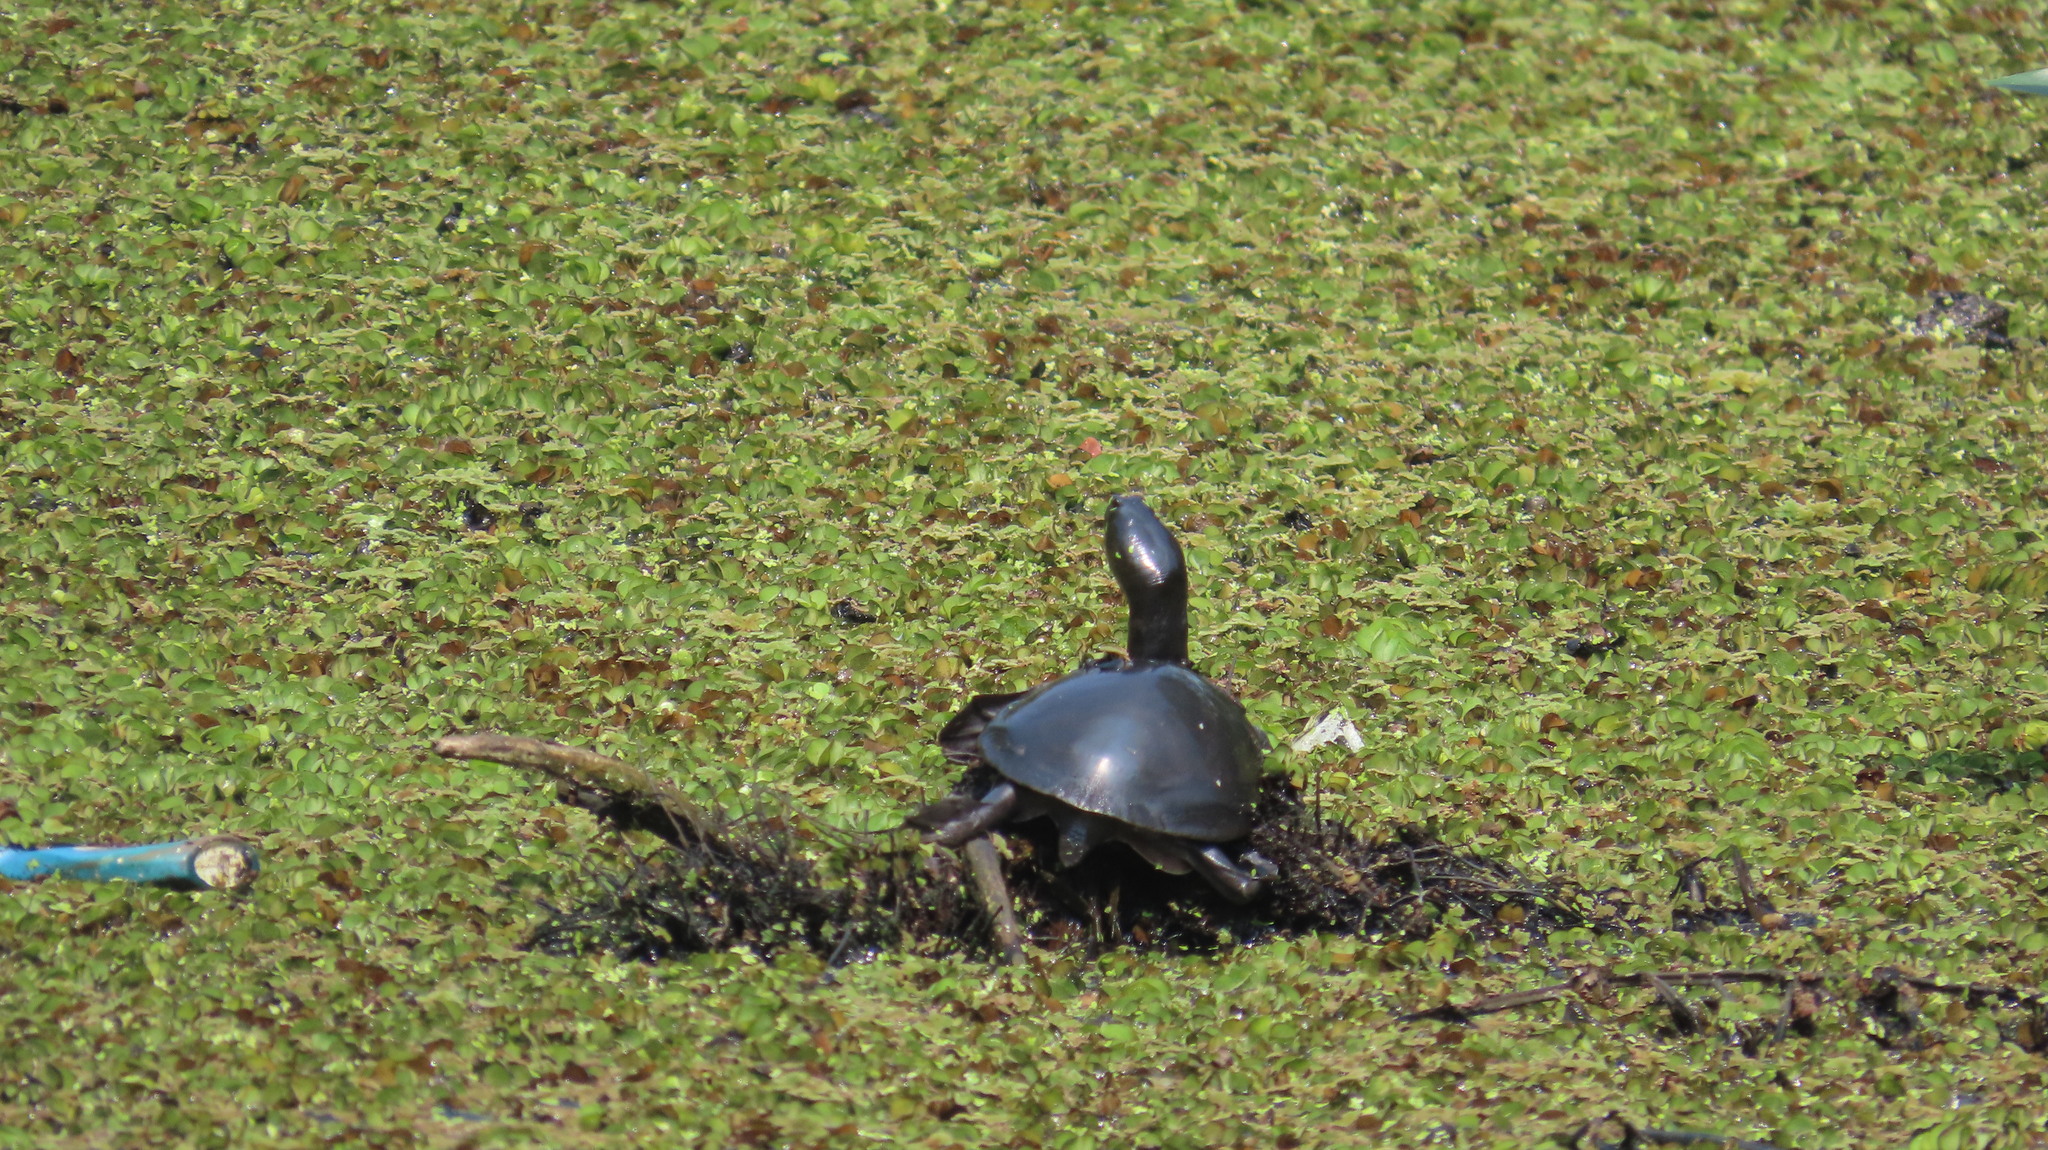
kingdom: Animalia
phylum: Chordata
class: Testudines
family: Trionychidae
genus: Lissemys
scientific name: Lissemys punctata
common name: Indian flap-shelled turtle
